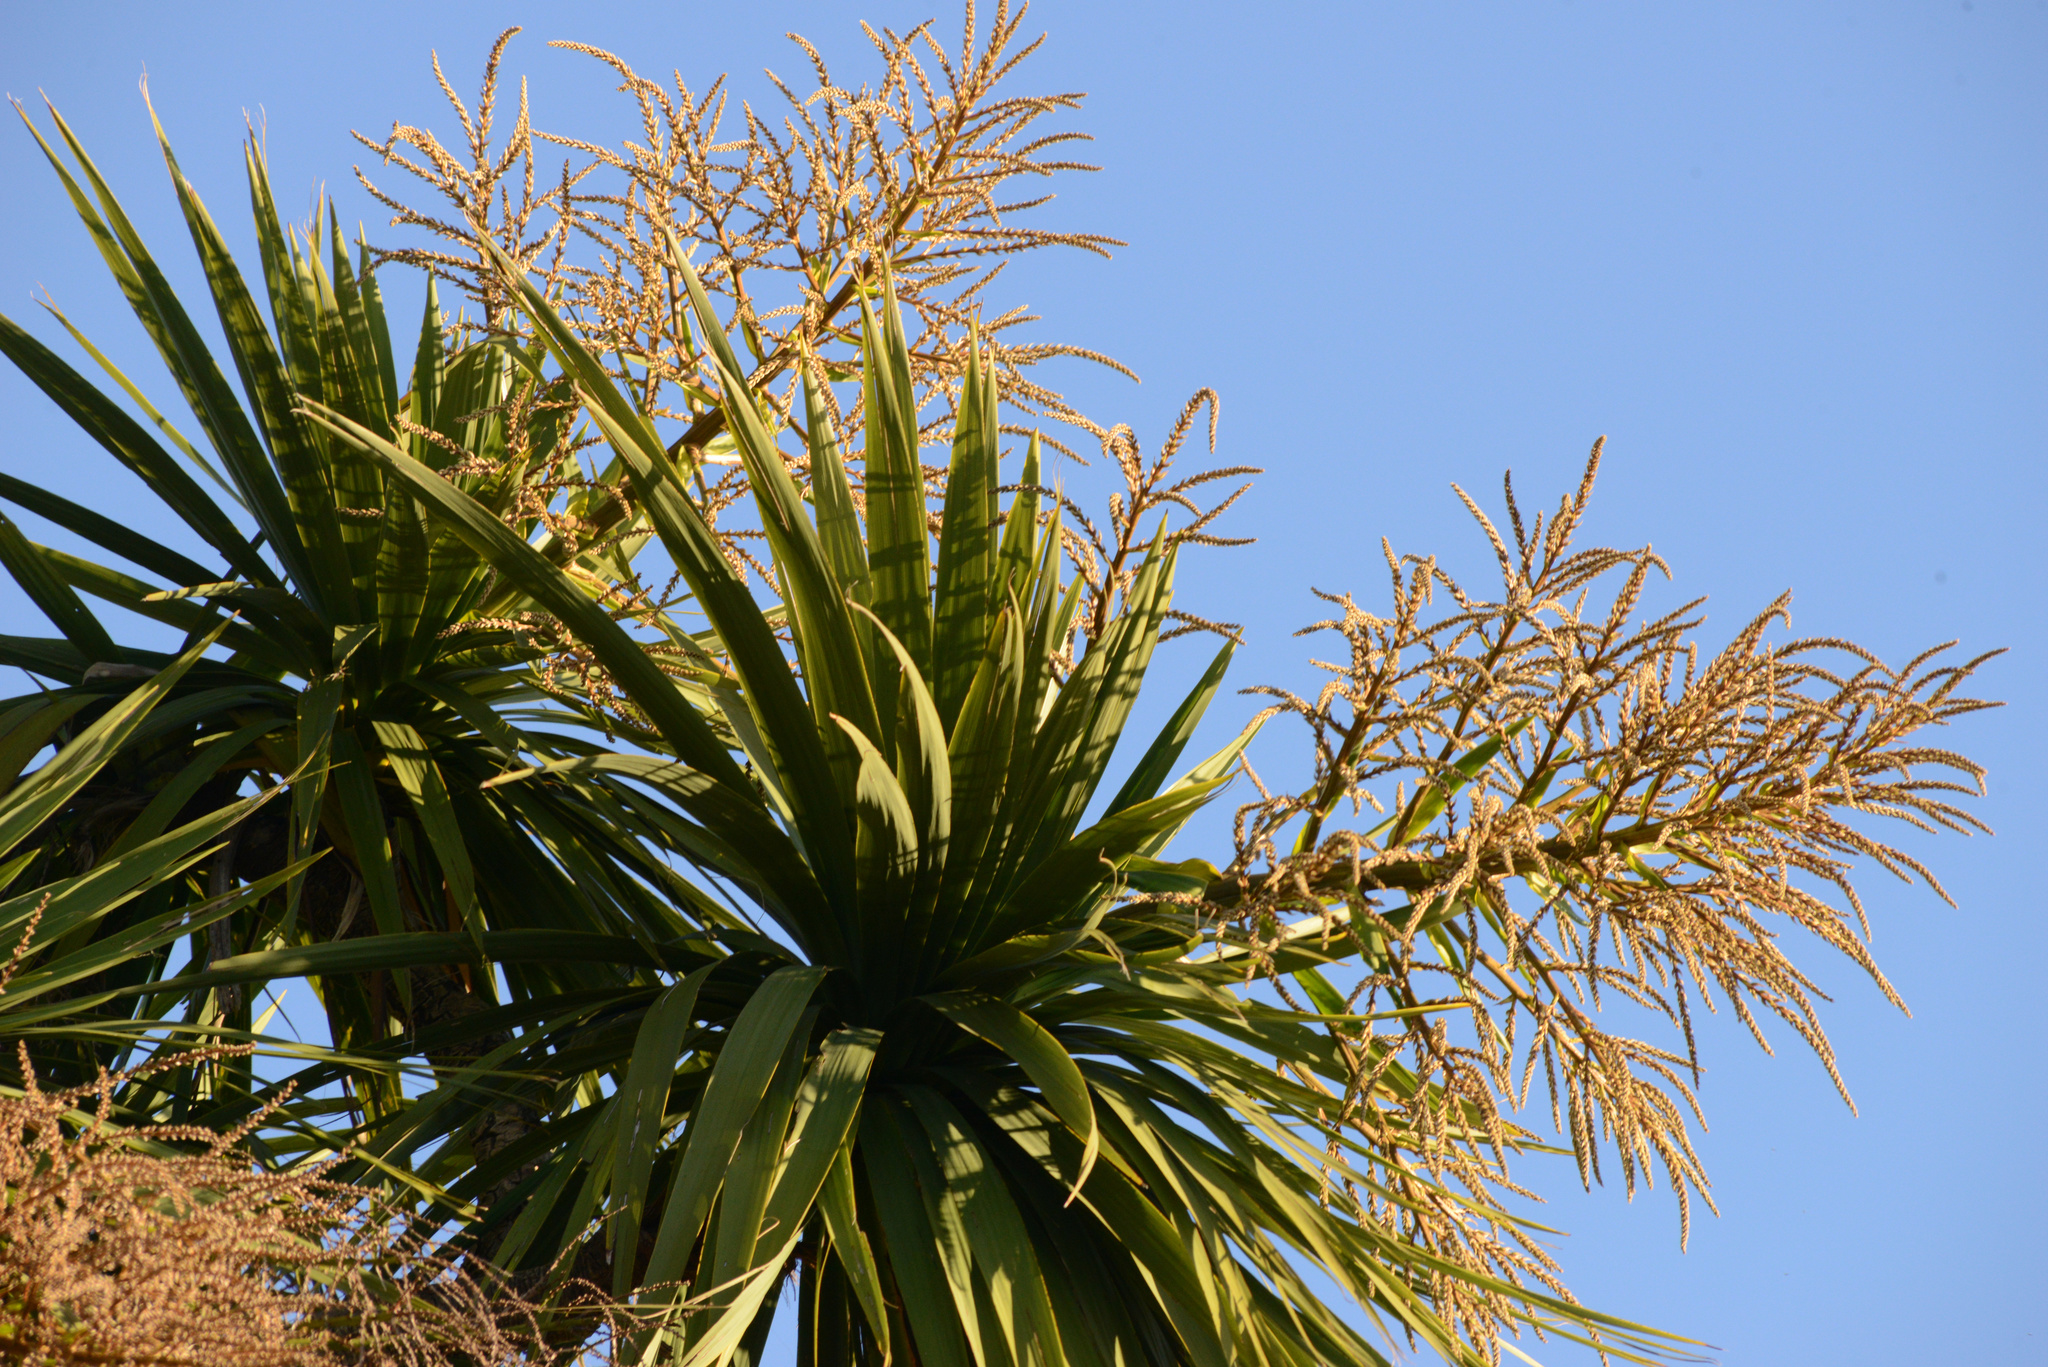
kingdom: Plantae
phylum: Tracheophyta
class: Liliopsida
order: Asparagales
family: Asparagaceae
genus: Cordyline
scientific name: Cordyline australis
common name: Cabbage-palm
